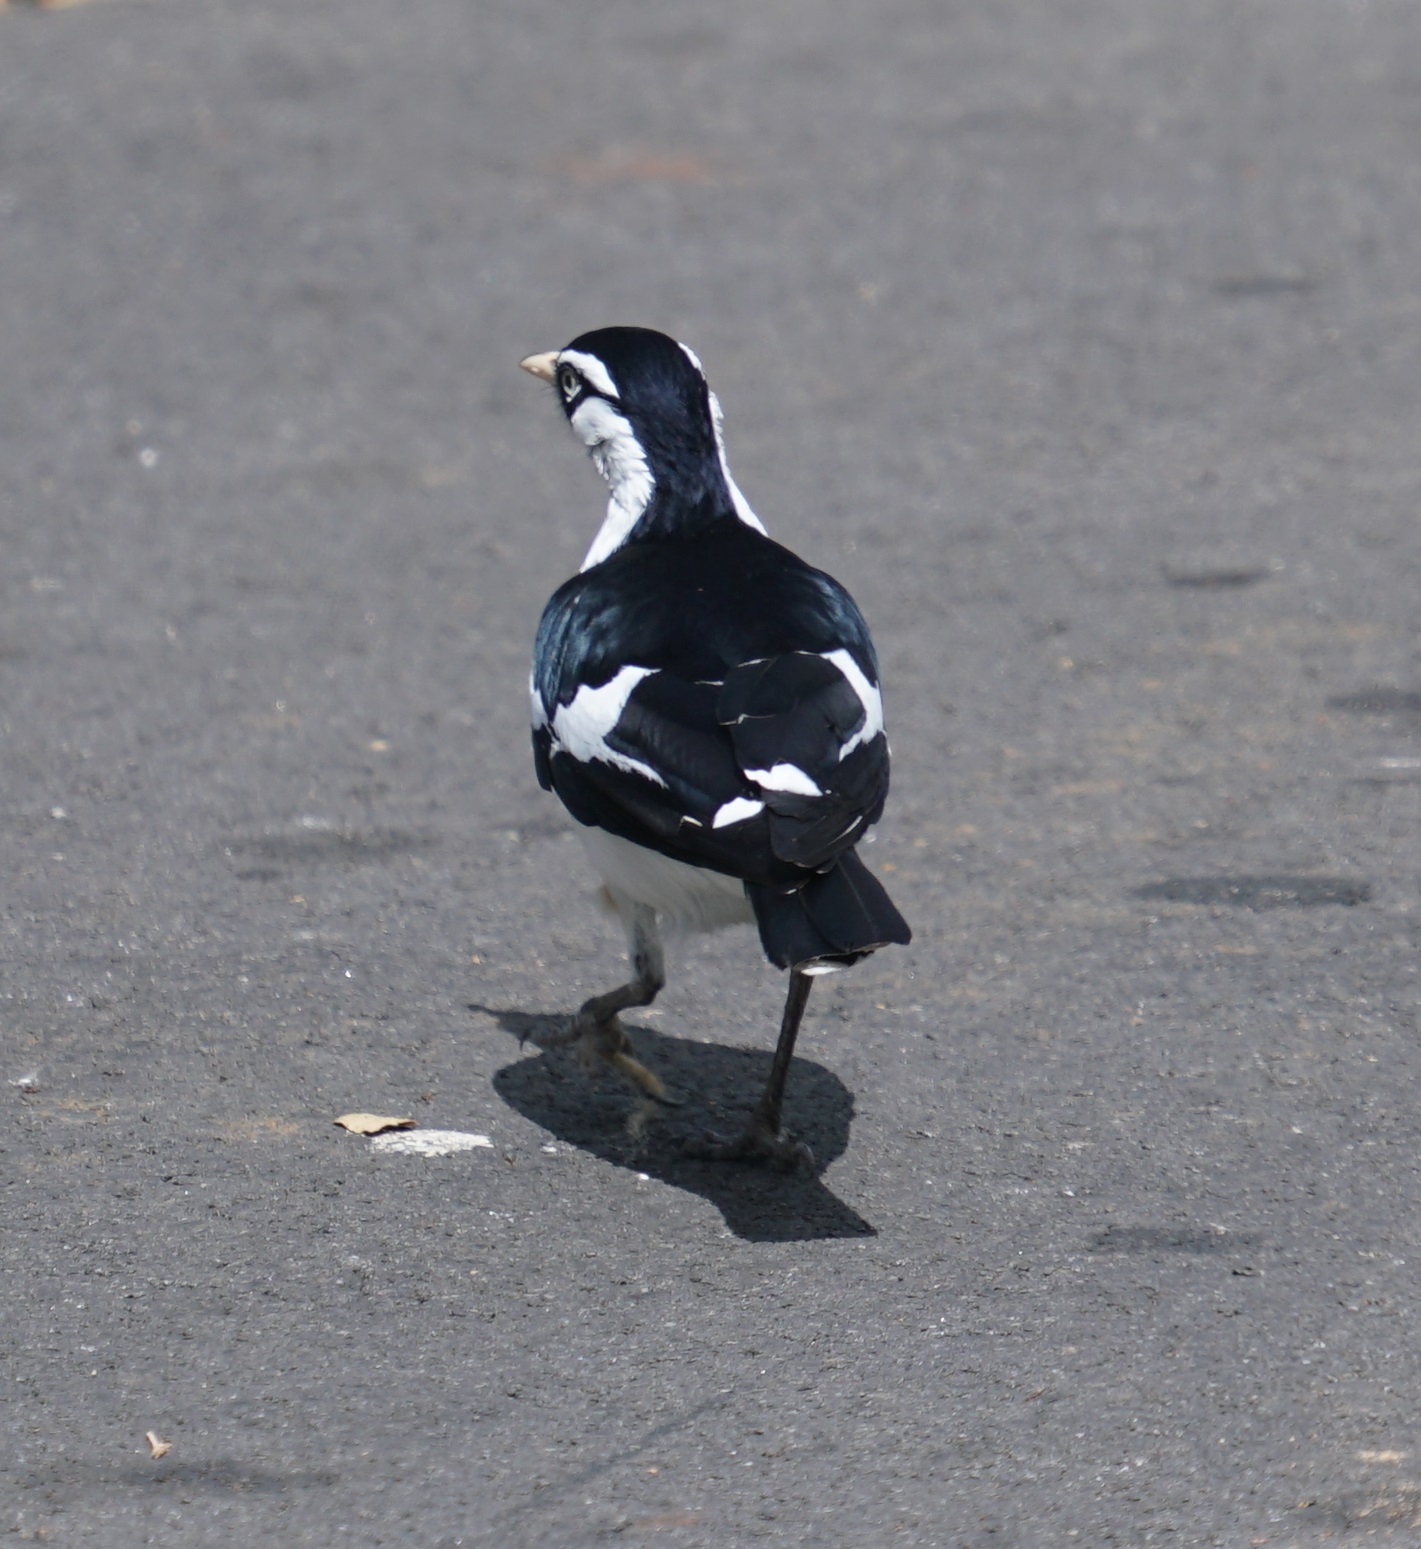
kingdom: Animalia
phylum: Chordata
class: Aves
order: Passeriformes
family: Monarchidae
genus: Grallina
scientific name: Grallina cyanoleuca
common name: Magpie-lark
